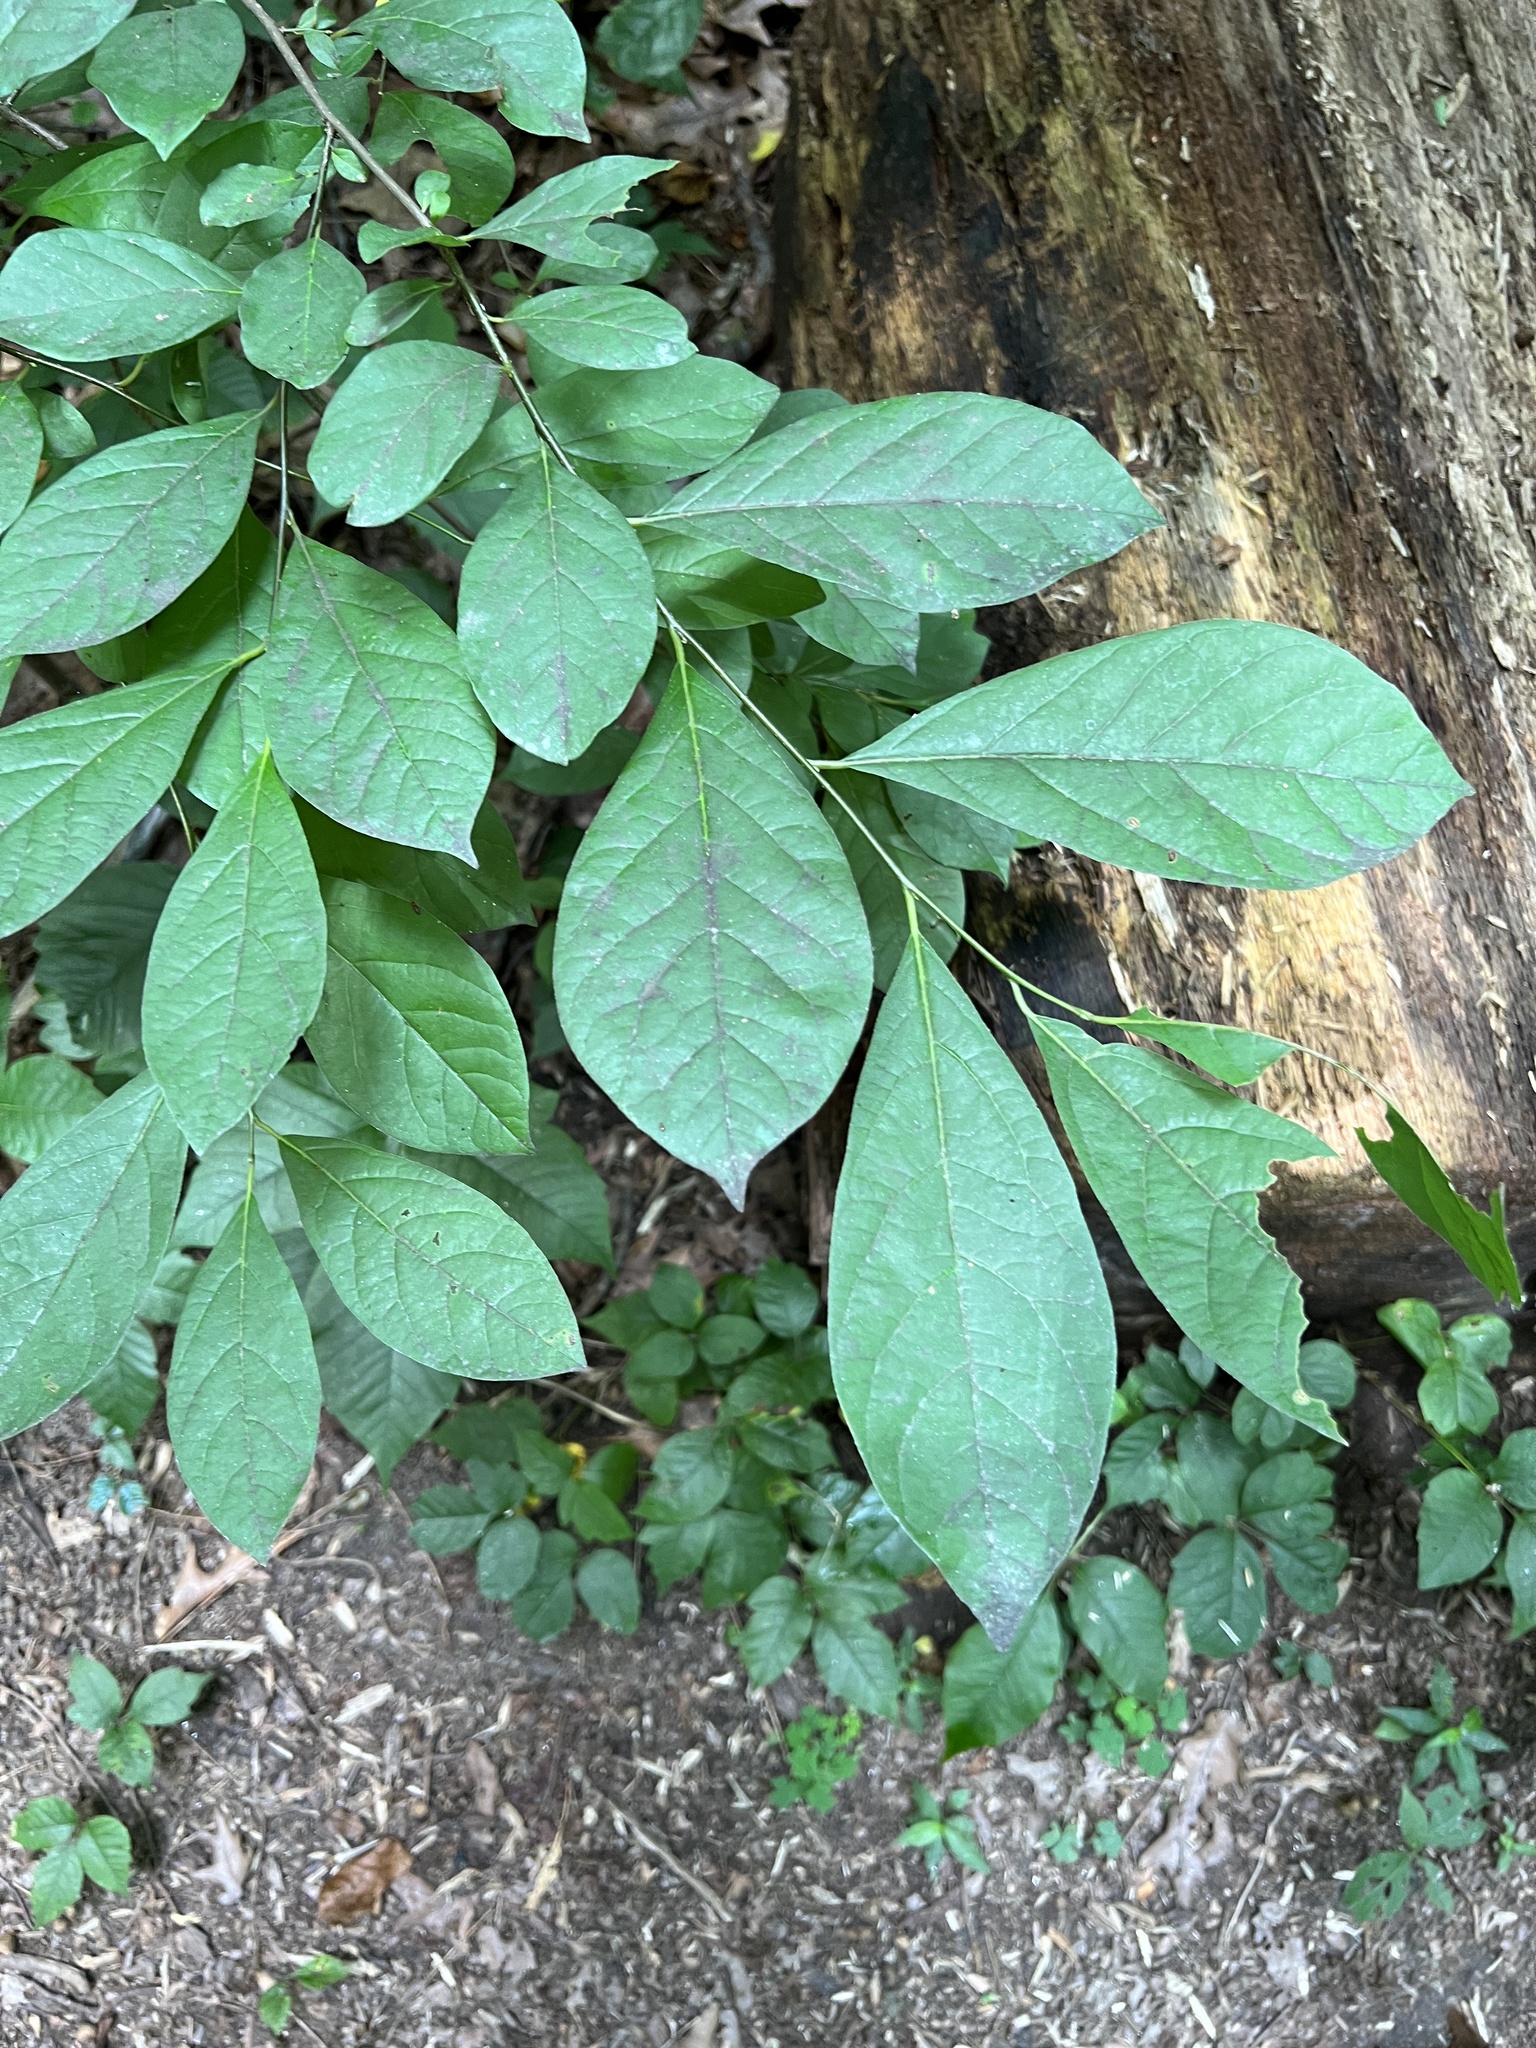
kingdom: Plantae
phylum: Tracheophyta
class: Magnoliopsida
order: Laurales
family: Lauraceae
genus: Lindera
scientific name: Lindera benzoin
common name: Spicebush
